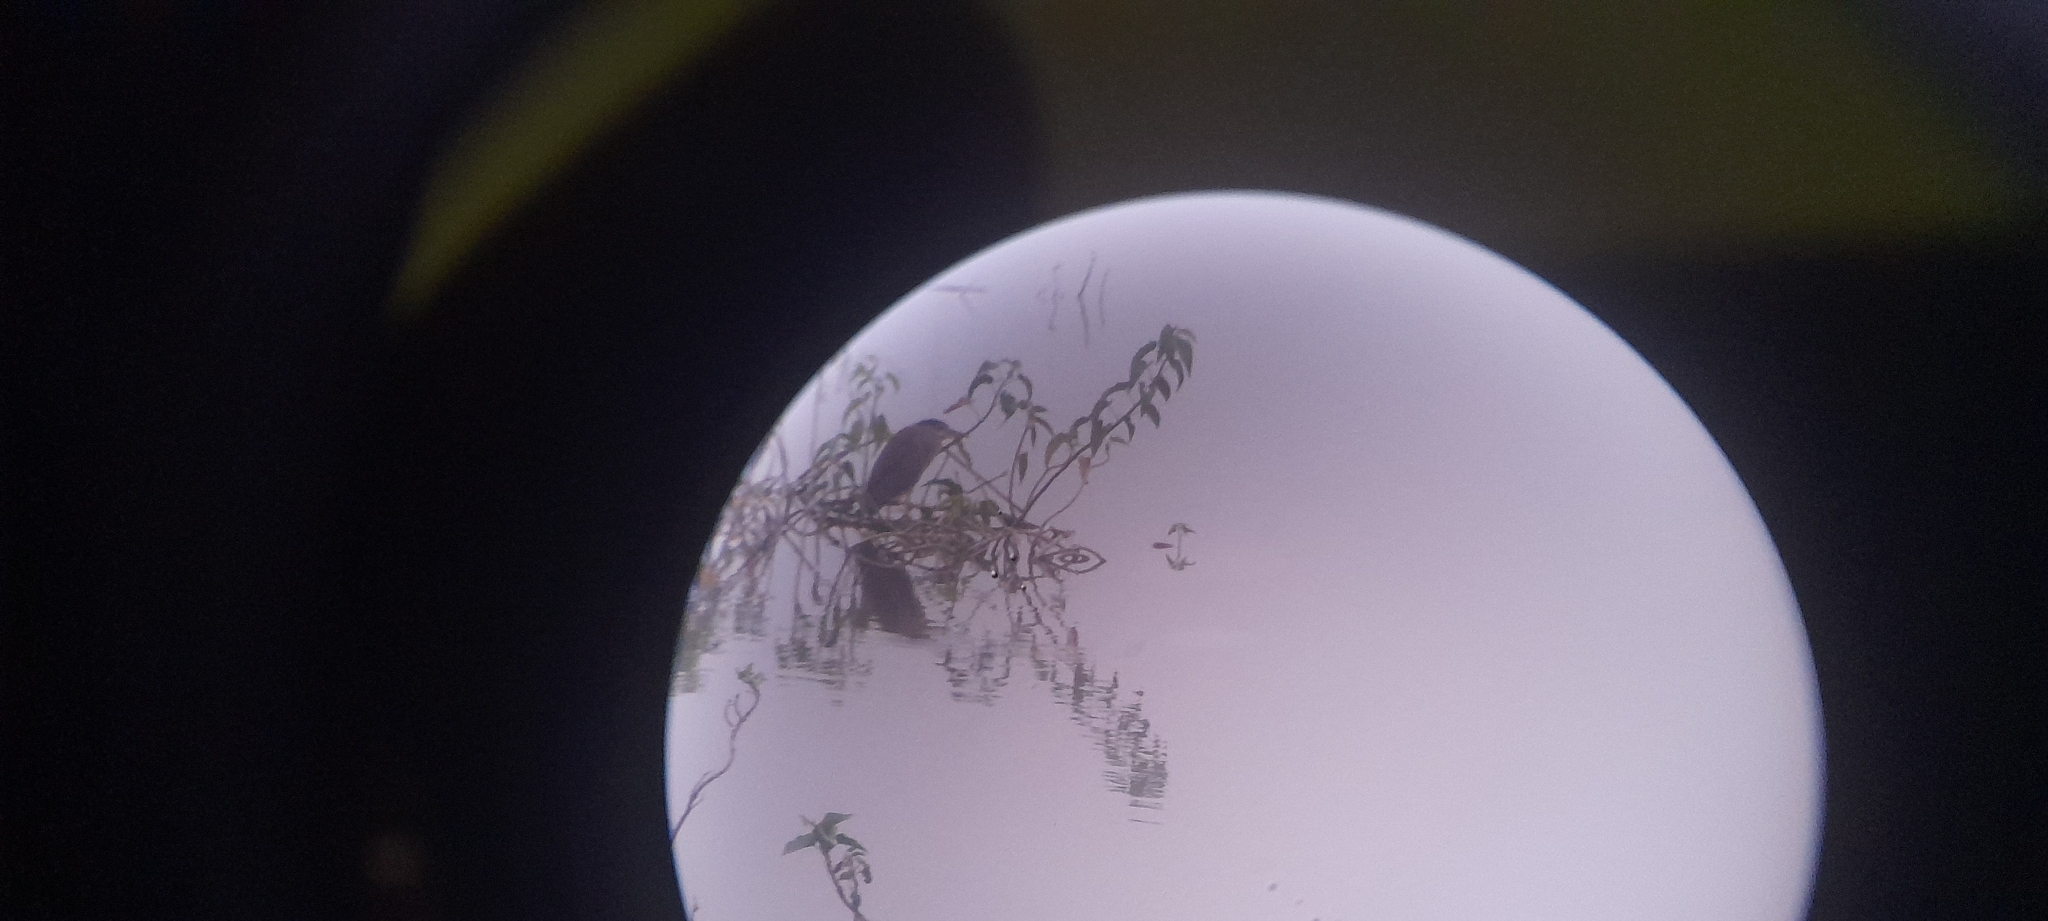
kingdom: Animalia
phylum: Chordata
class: Aves
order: Pelecaniformes
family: Ardeidae
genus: Nycticorax
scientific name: Nycticorax nycticorax
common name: Black-crowned night heron
